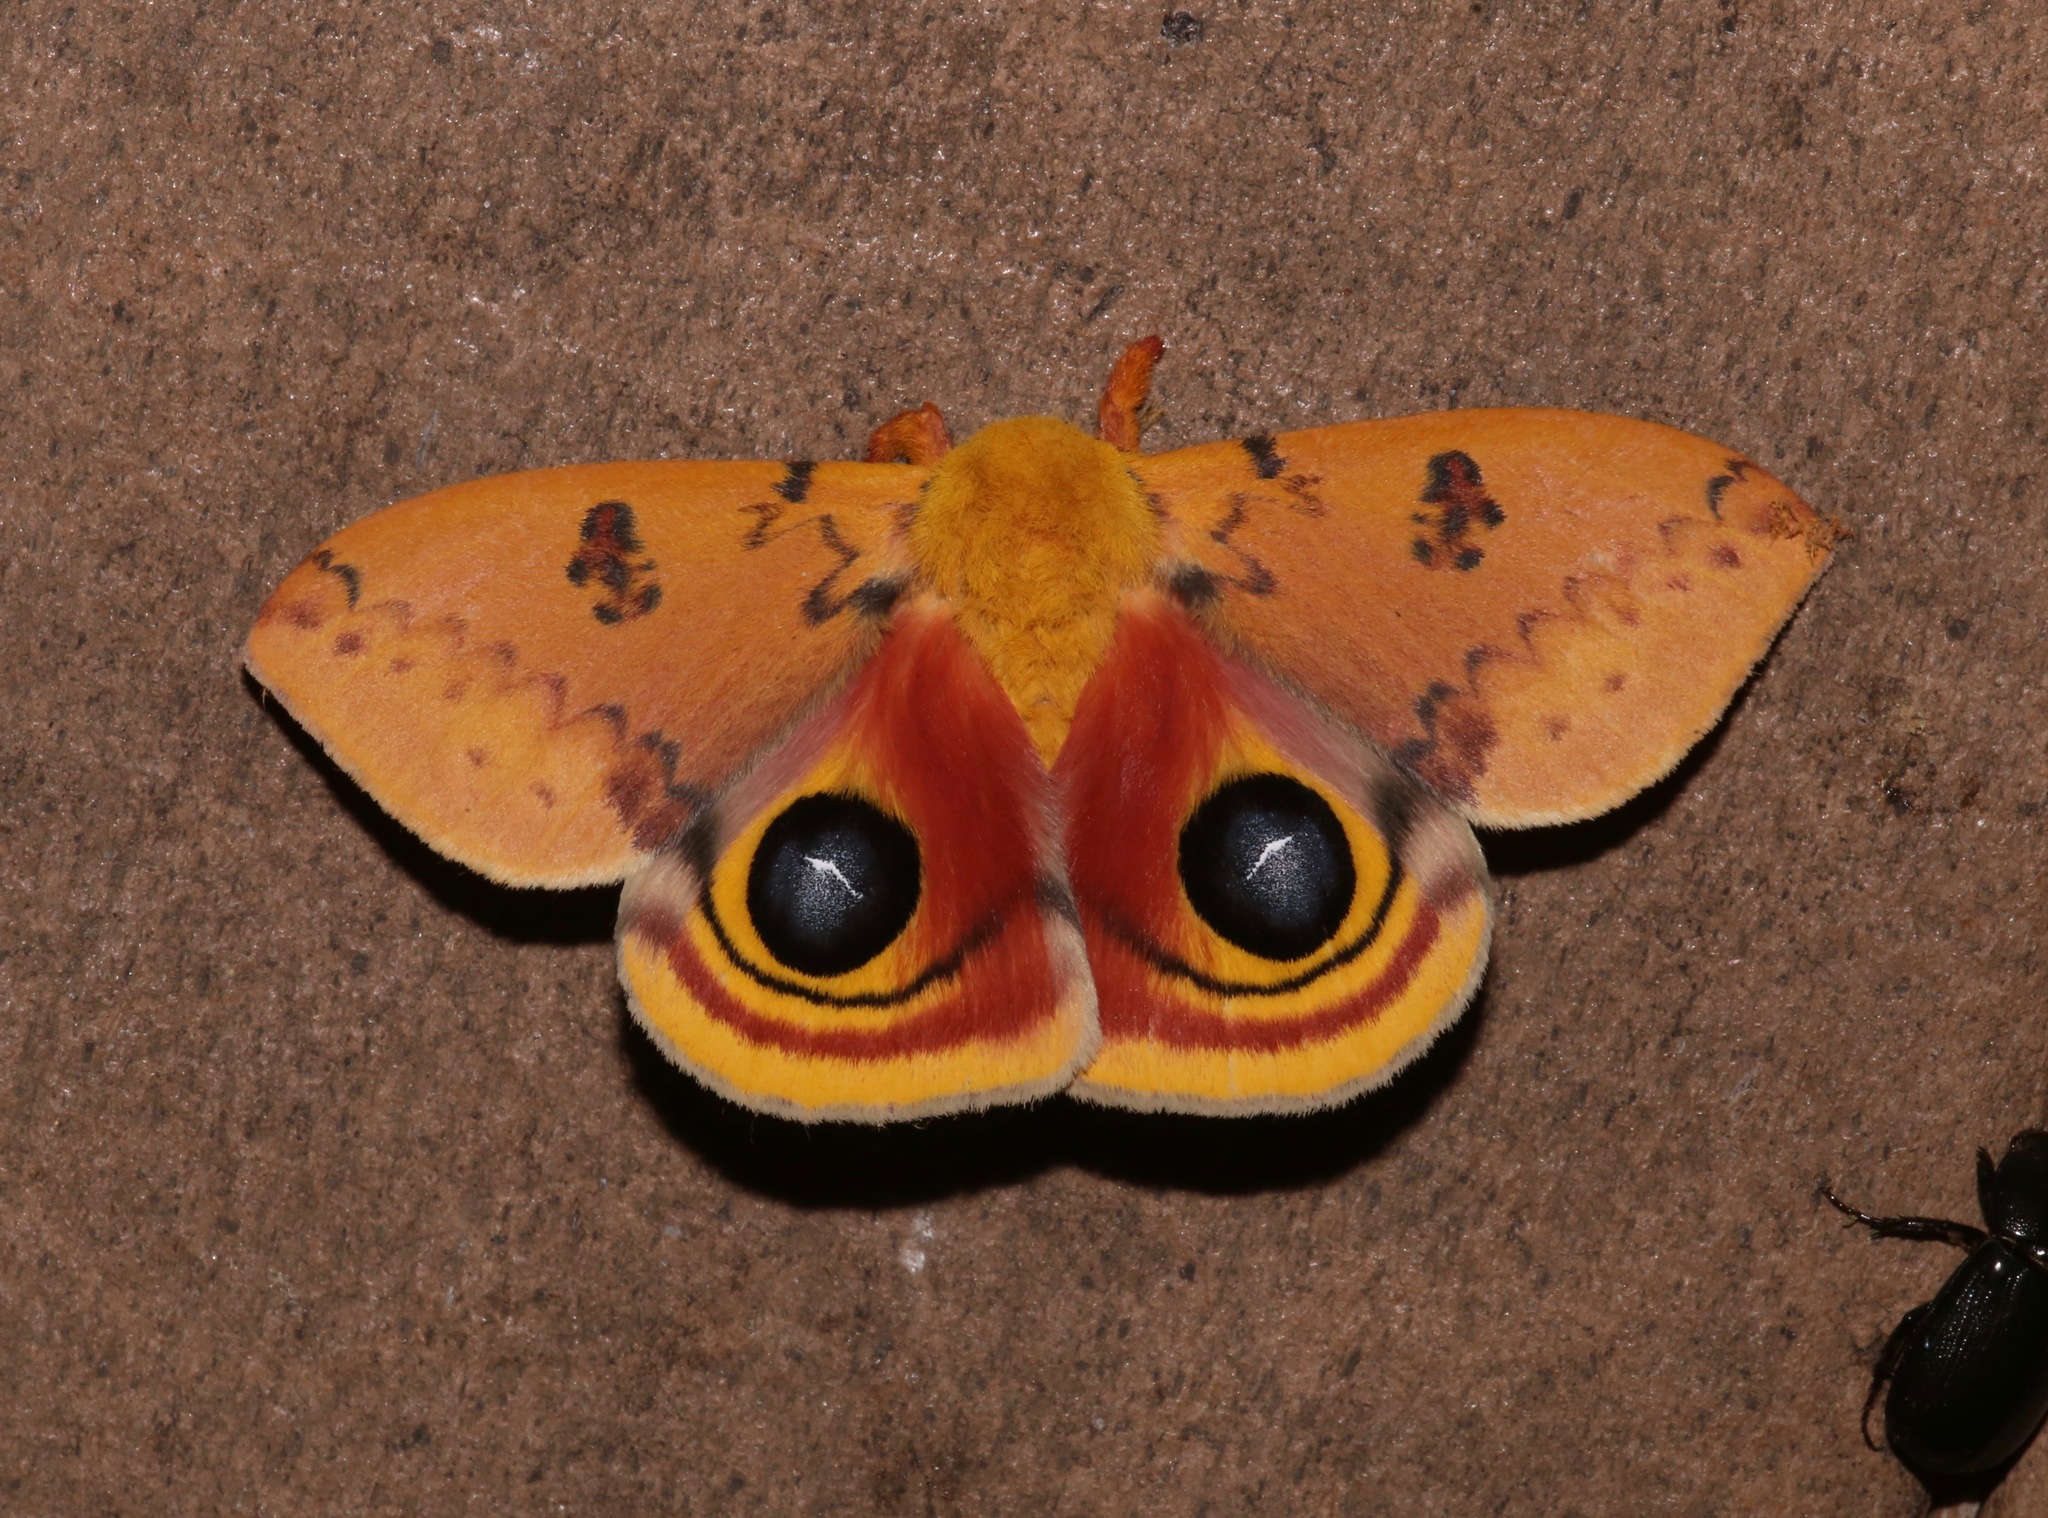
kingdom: Animalia
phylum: Arthropoda
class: Insecta
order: Lepidoptera
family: Saturniidae
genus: Automeris
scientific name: Automeris io
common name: Io moth
